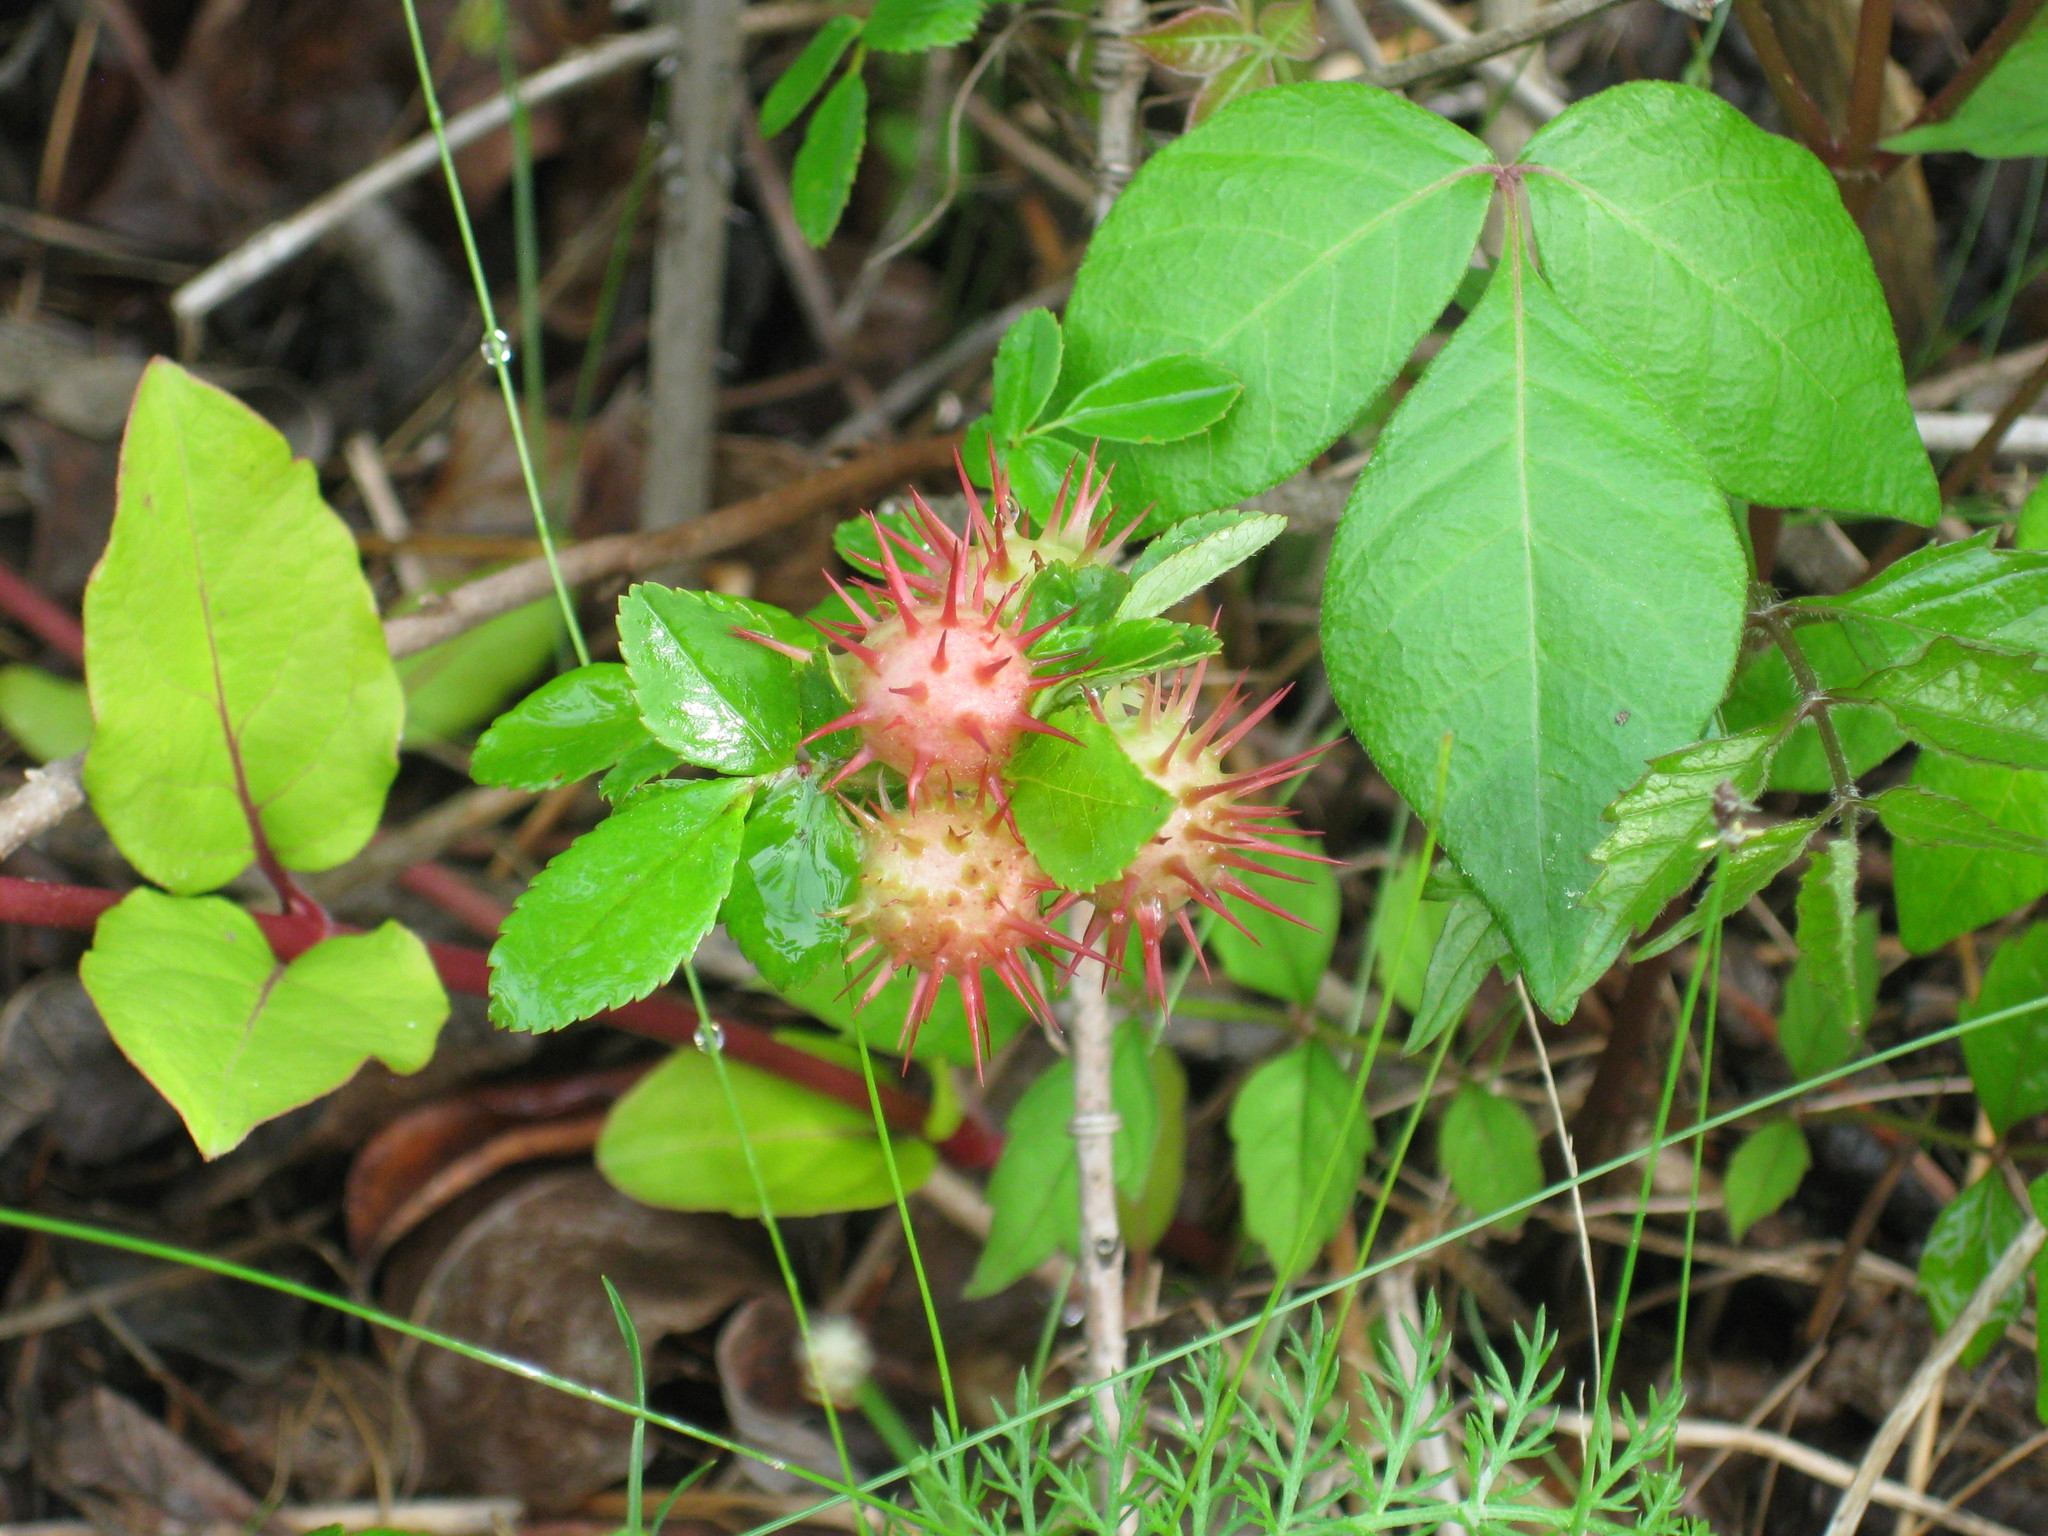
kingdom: Animalia
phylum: Arthropoda
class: Insecta
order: Hymenoptera
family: Cynipidae
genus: Diplolepis
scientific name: Diplolepis polita
